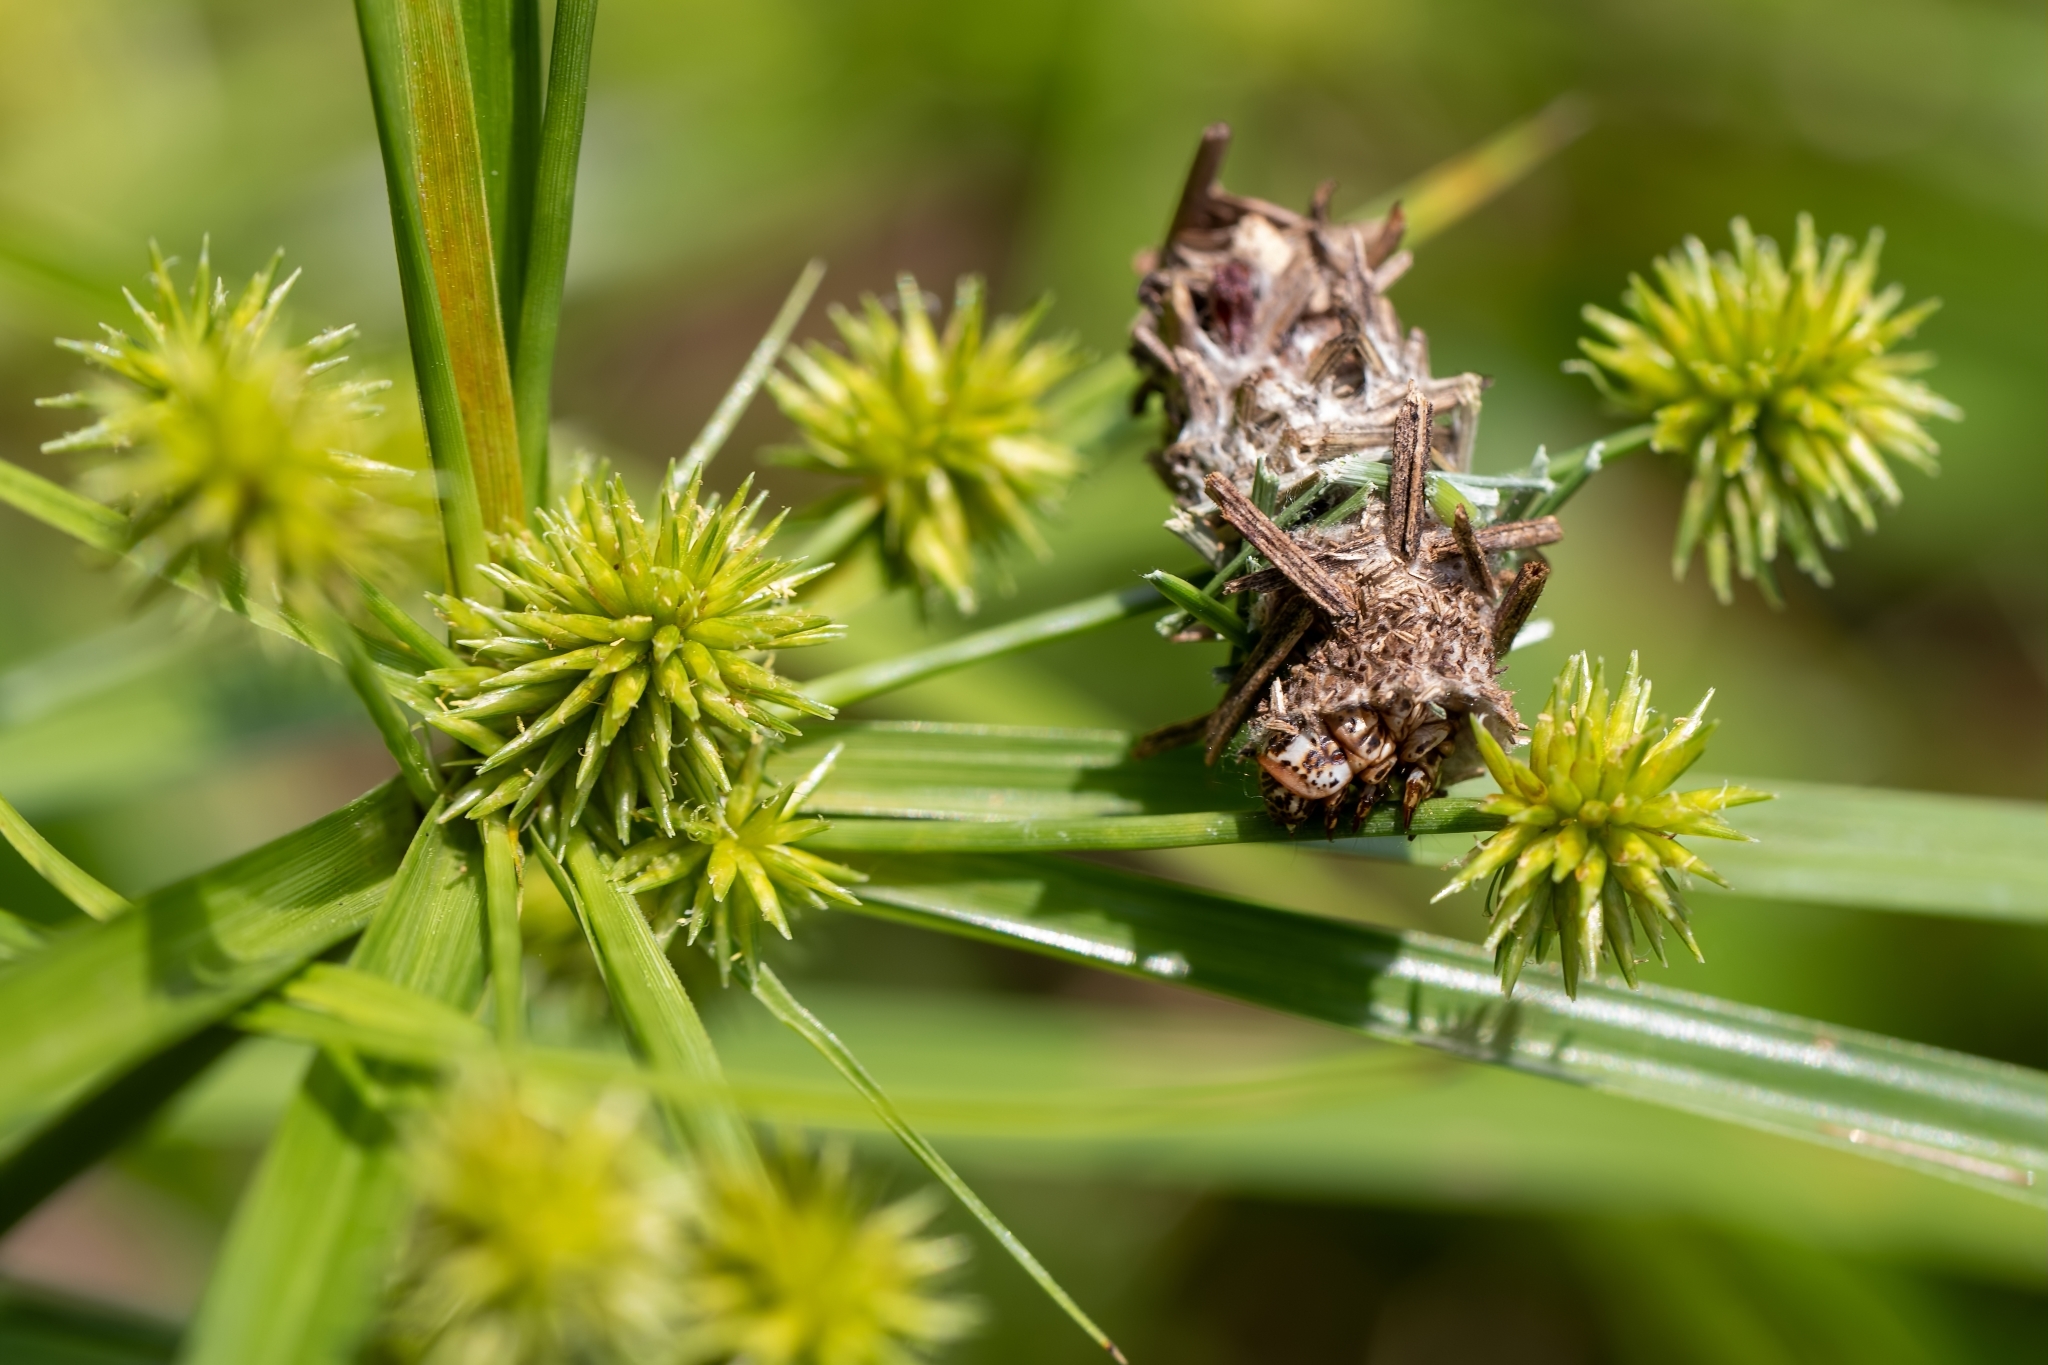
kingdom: Animalia
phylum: Arthropoda
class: Insecta
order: Lepidoptera
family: Psychidae
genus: Oiketicus
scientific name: Oiketicus
